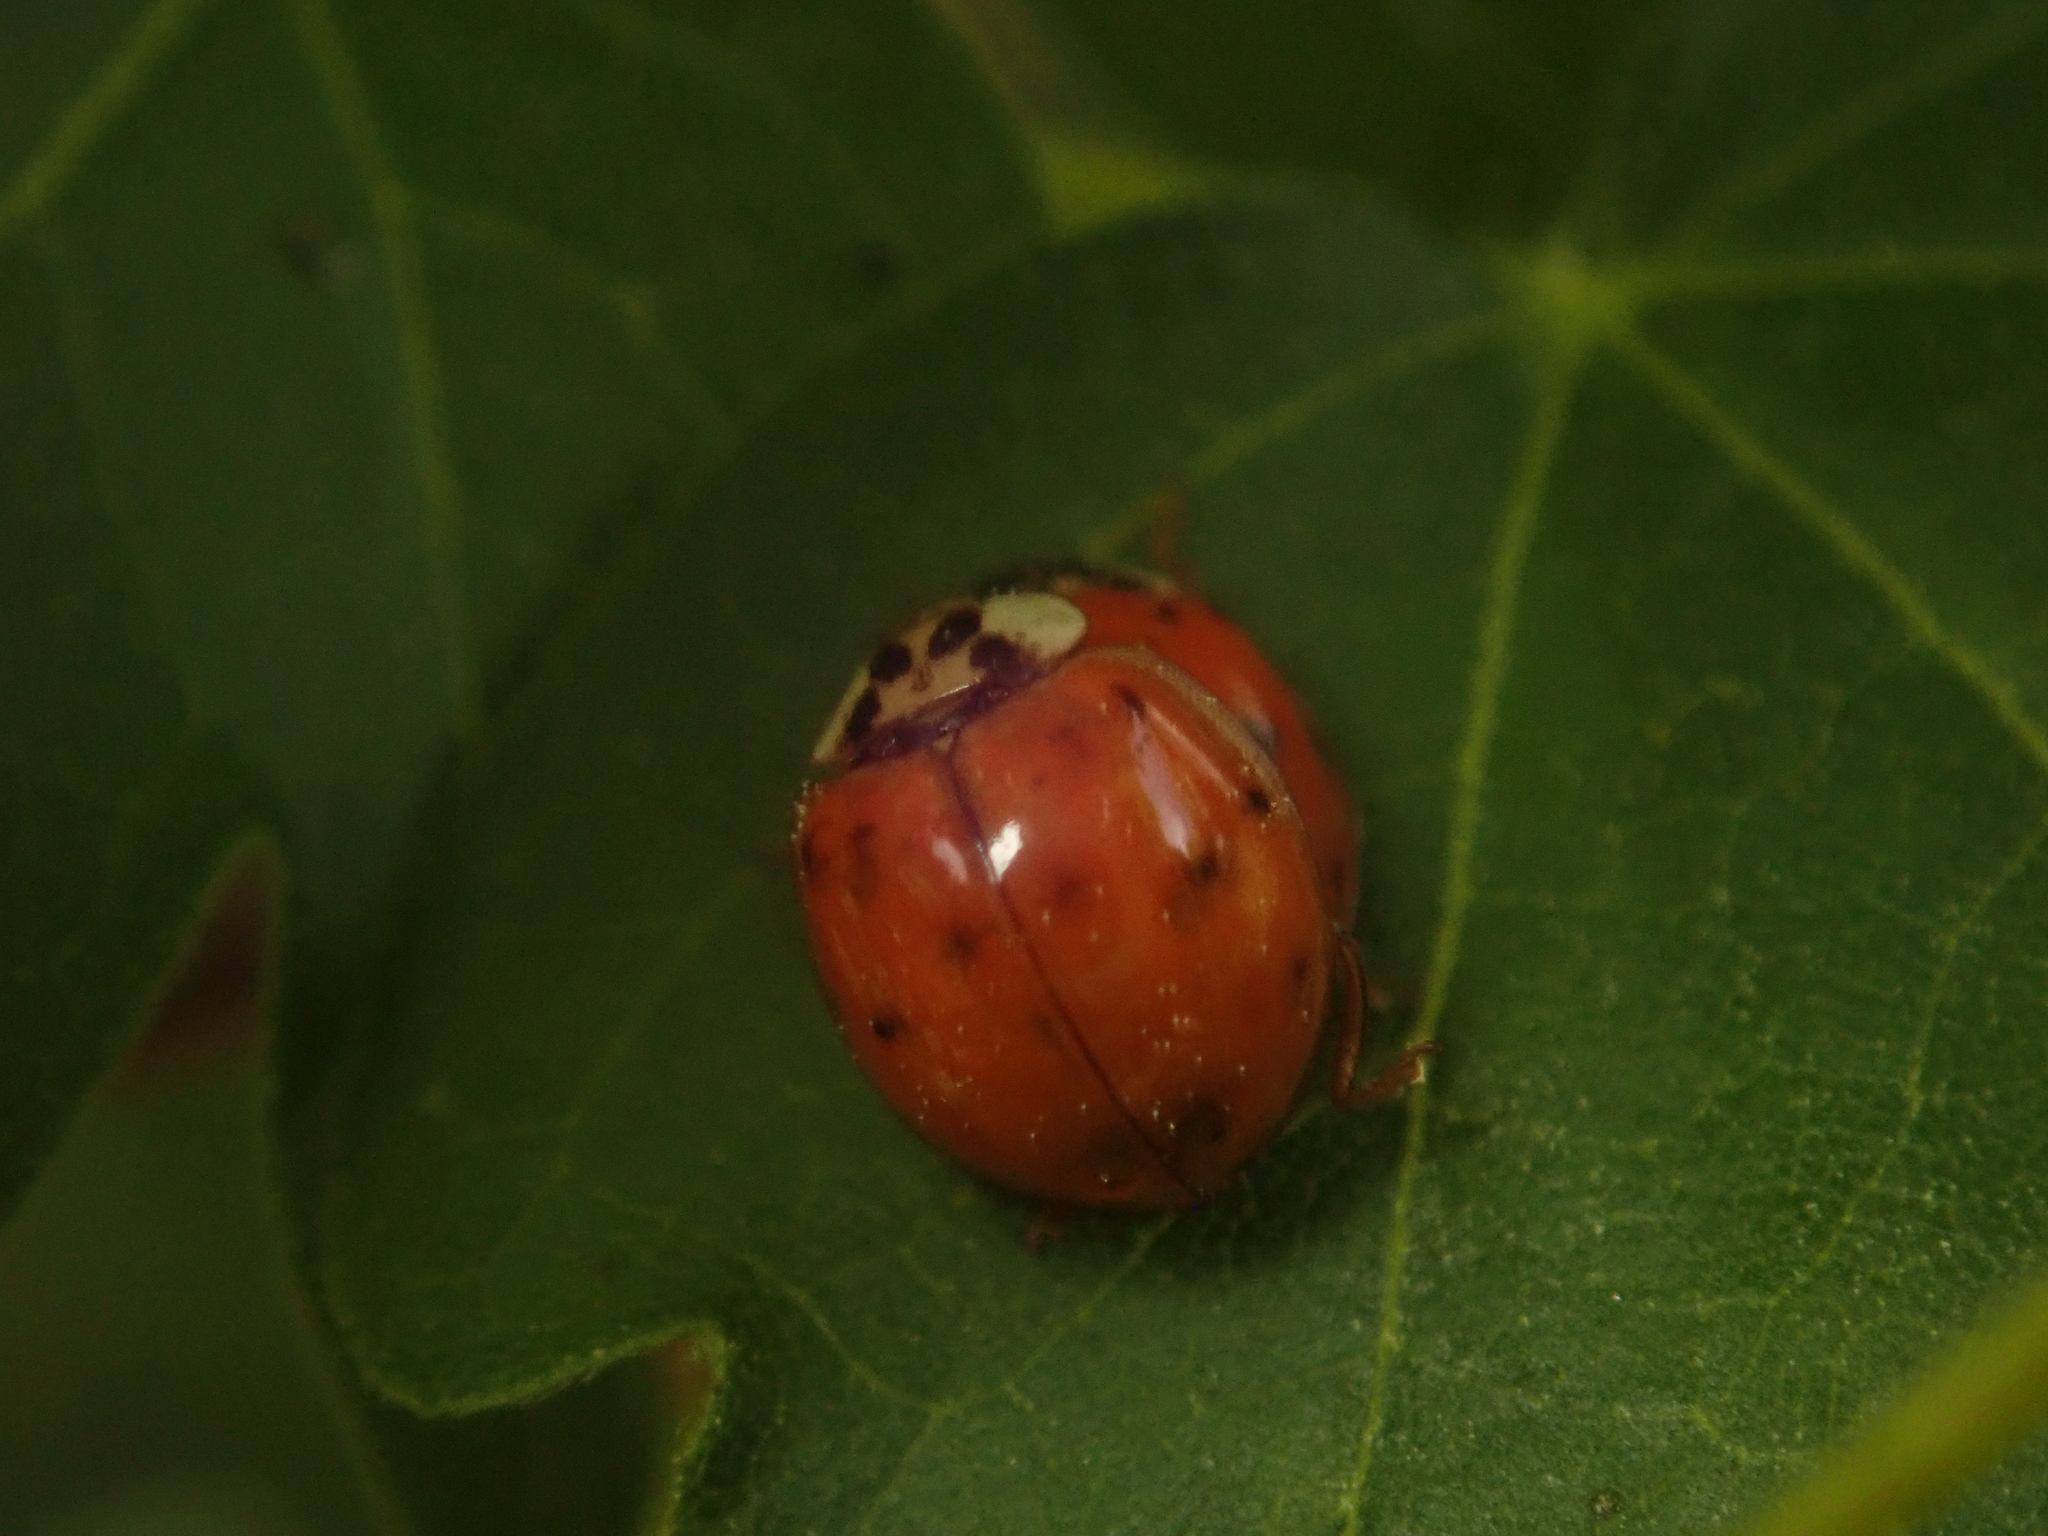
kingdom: Animalia
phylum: Arthropoda
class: Insecta
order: Coleoptera
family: Coccinellidae
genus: Harmonia
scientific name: Harmonia axyridis
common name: Harlequin ladybird
